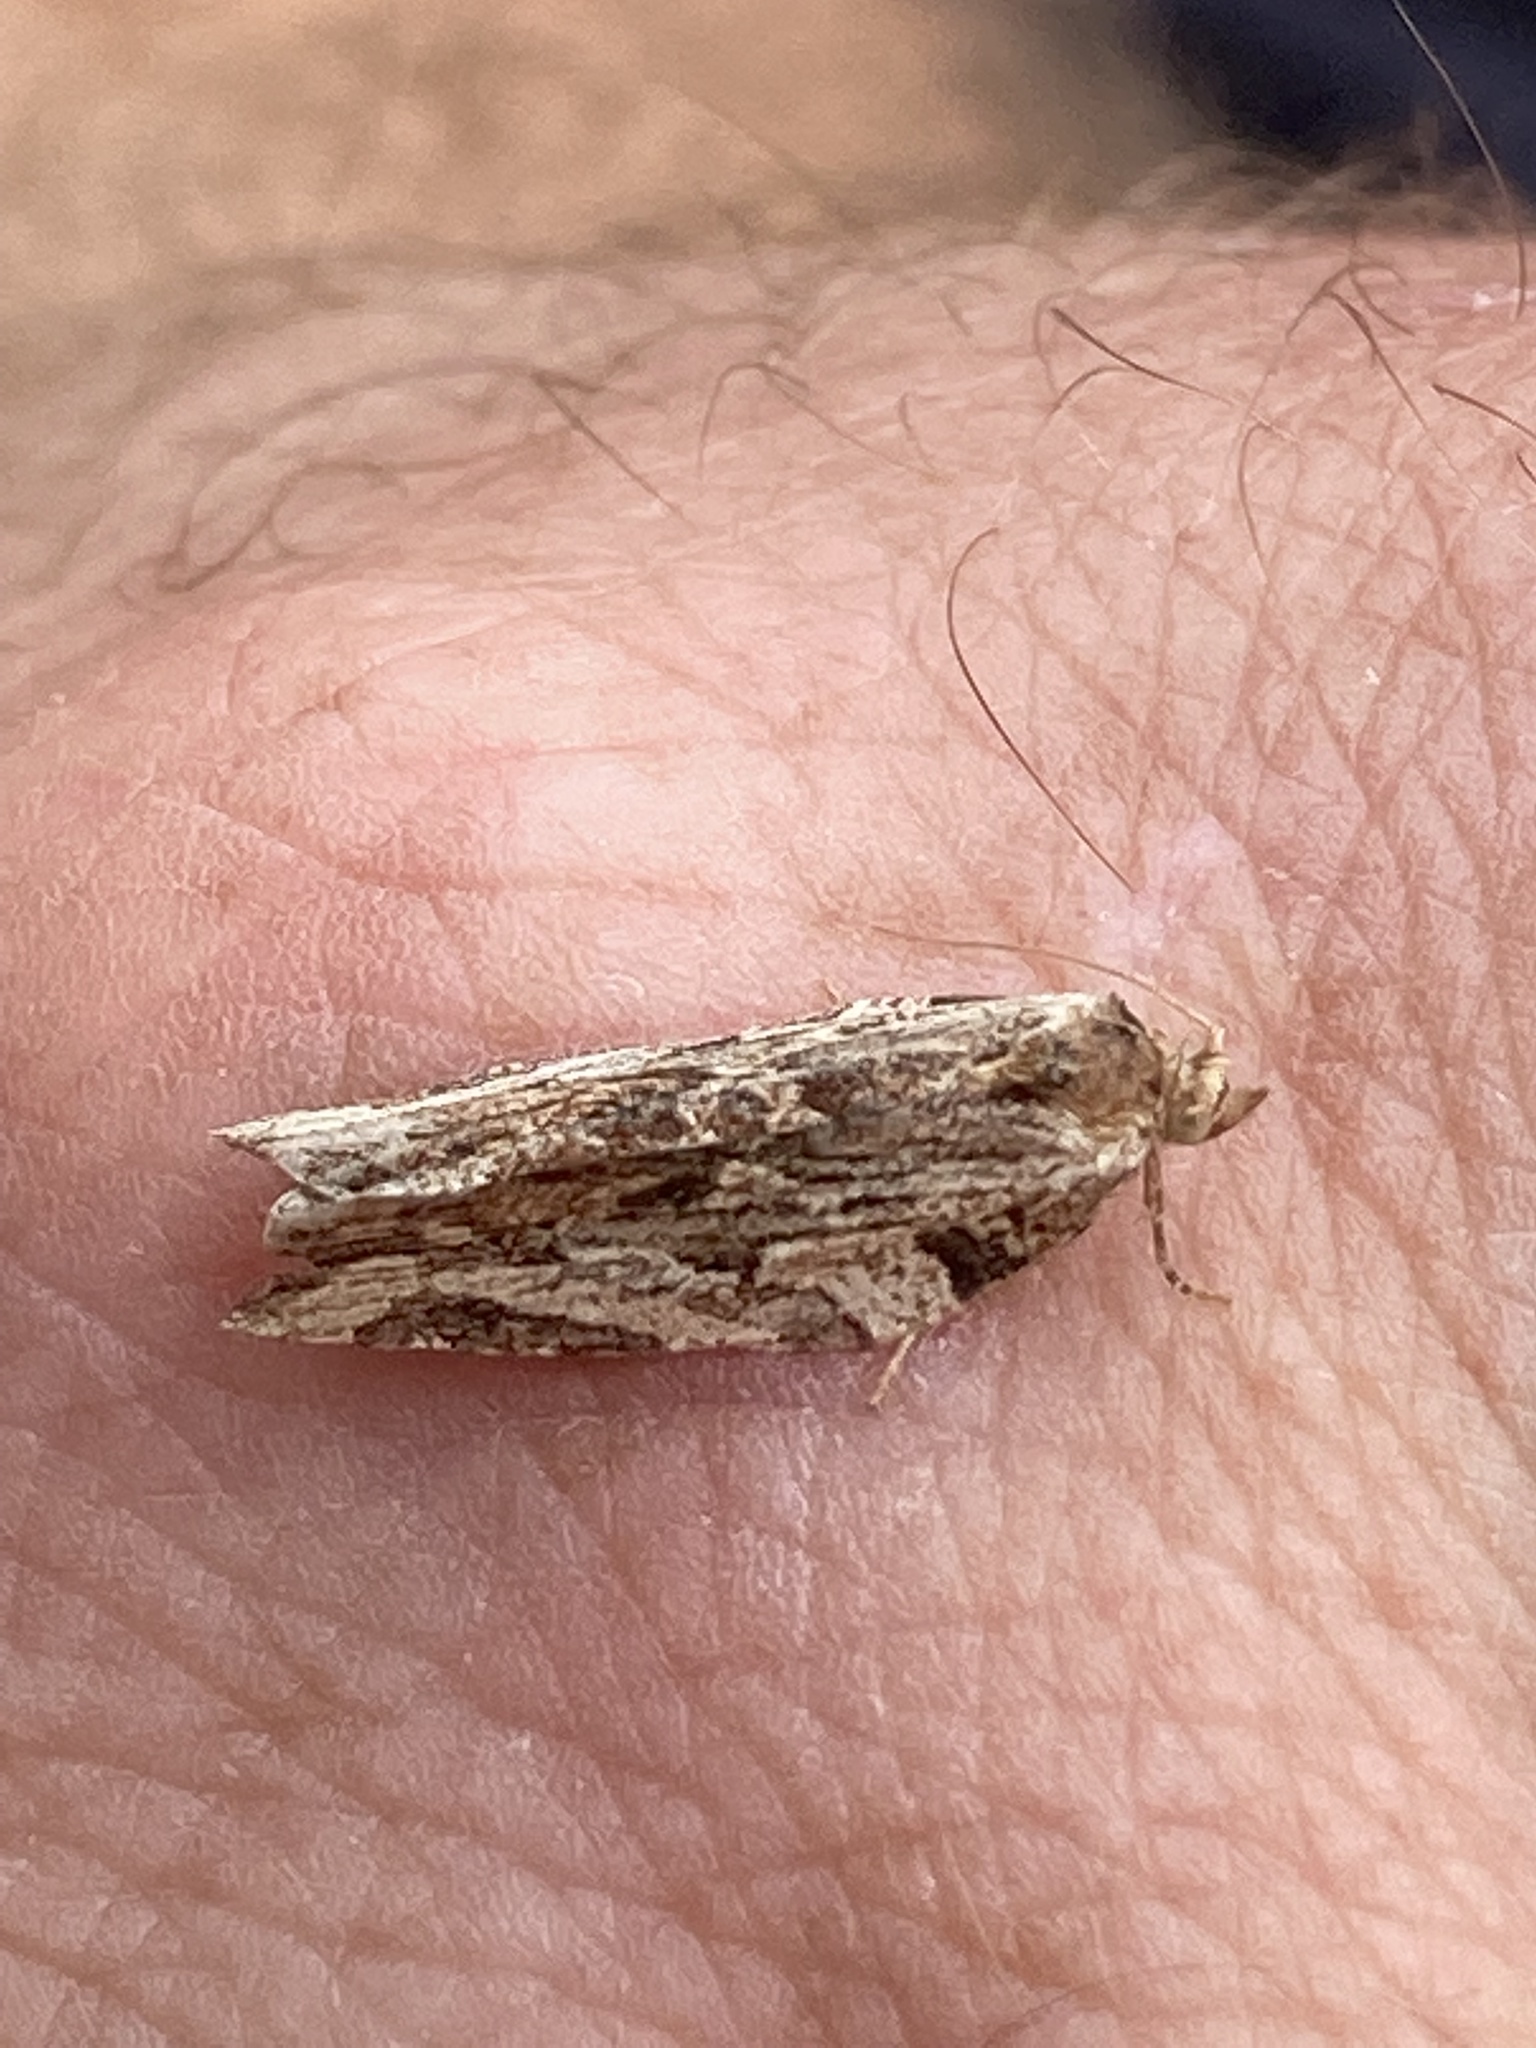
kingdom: Animalia
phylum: Arthropoda
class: Insecta
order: Lepidoptera
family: Tortricidae
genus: Epalxiphora
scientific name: Epalxiphora axenana
